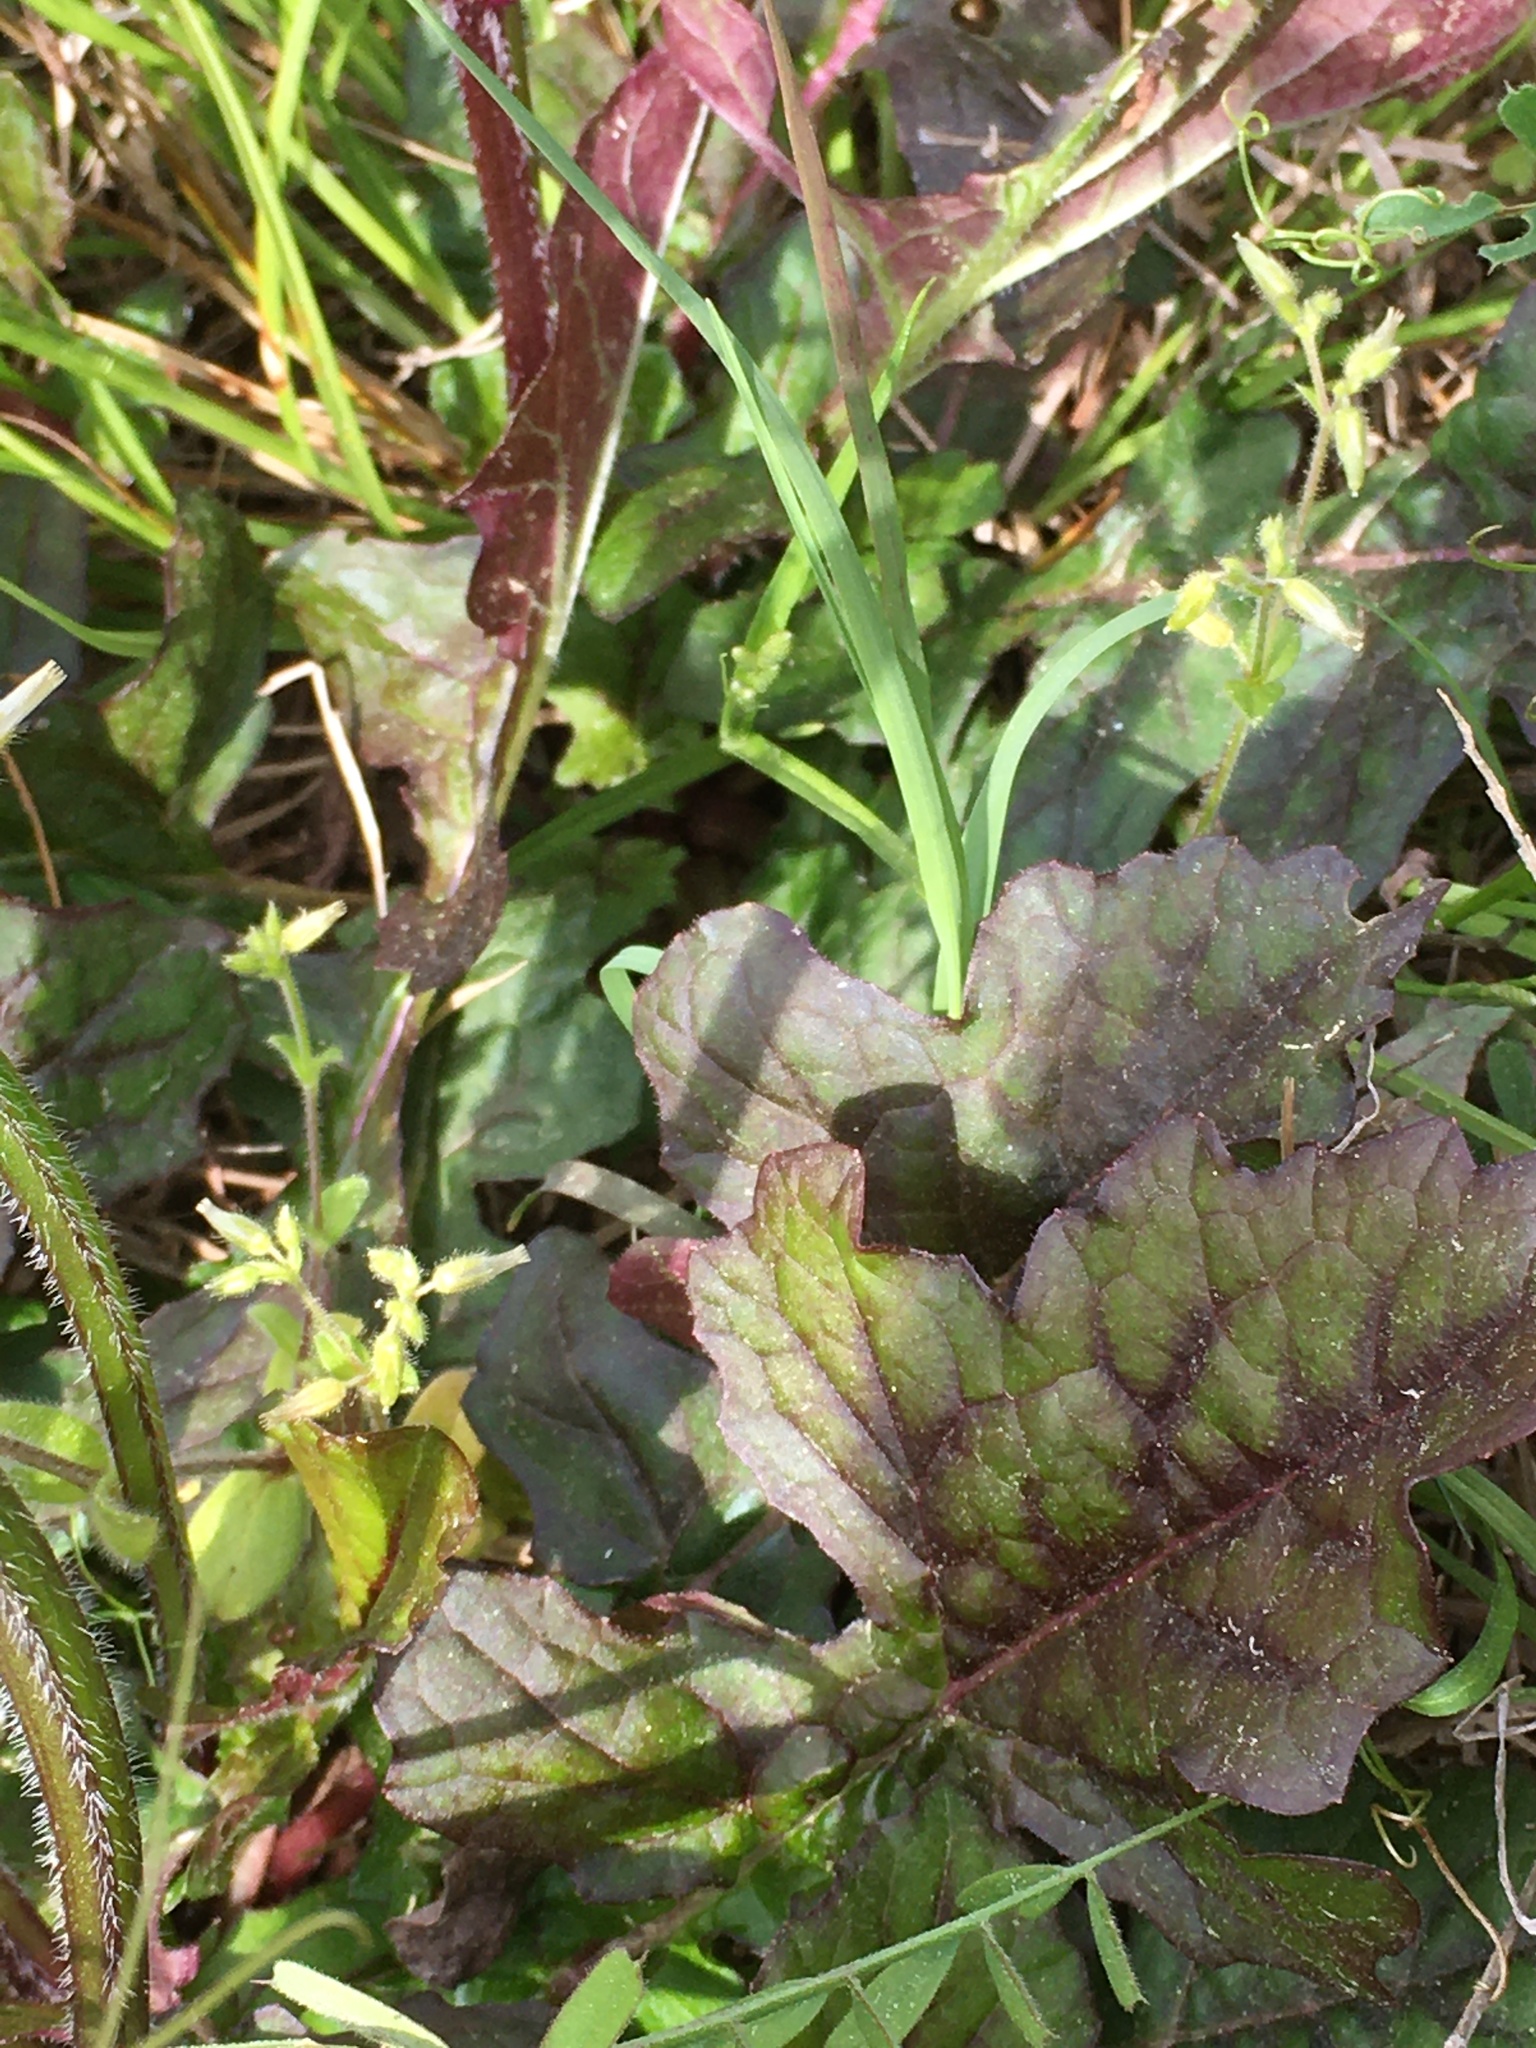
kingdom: Plantae
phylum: Tracheophyta
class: Magnoliopsida
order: Lamiales
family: Lamiaceae
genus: Salvia
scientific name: Salvia lyrata
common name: Cancerweed
